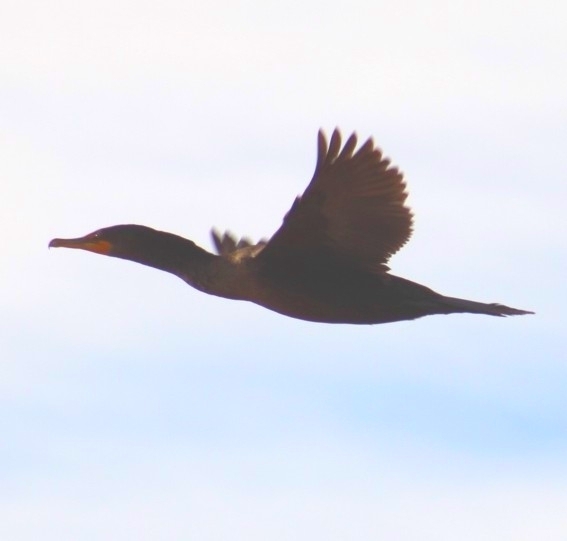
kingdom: Animalia
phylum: Chordata
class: Aves
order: Suliformes
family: Phalacrocoracidae
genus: Phalacrocorax
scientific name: Phalacrocorax auritus
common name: Double-crested cormorant
